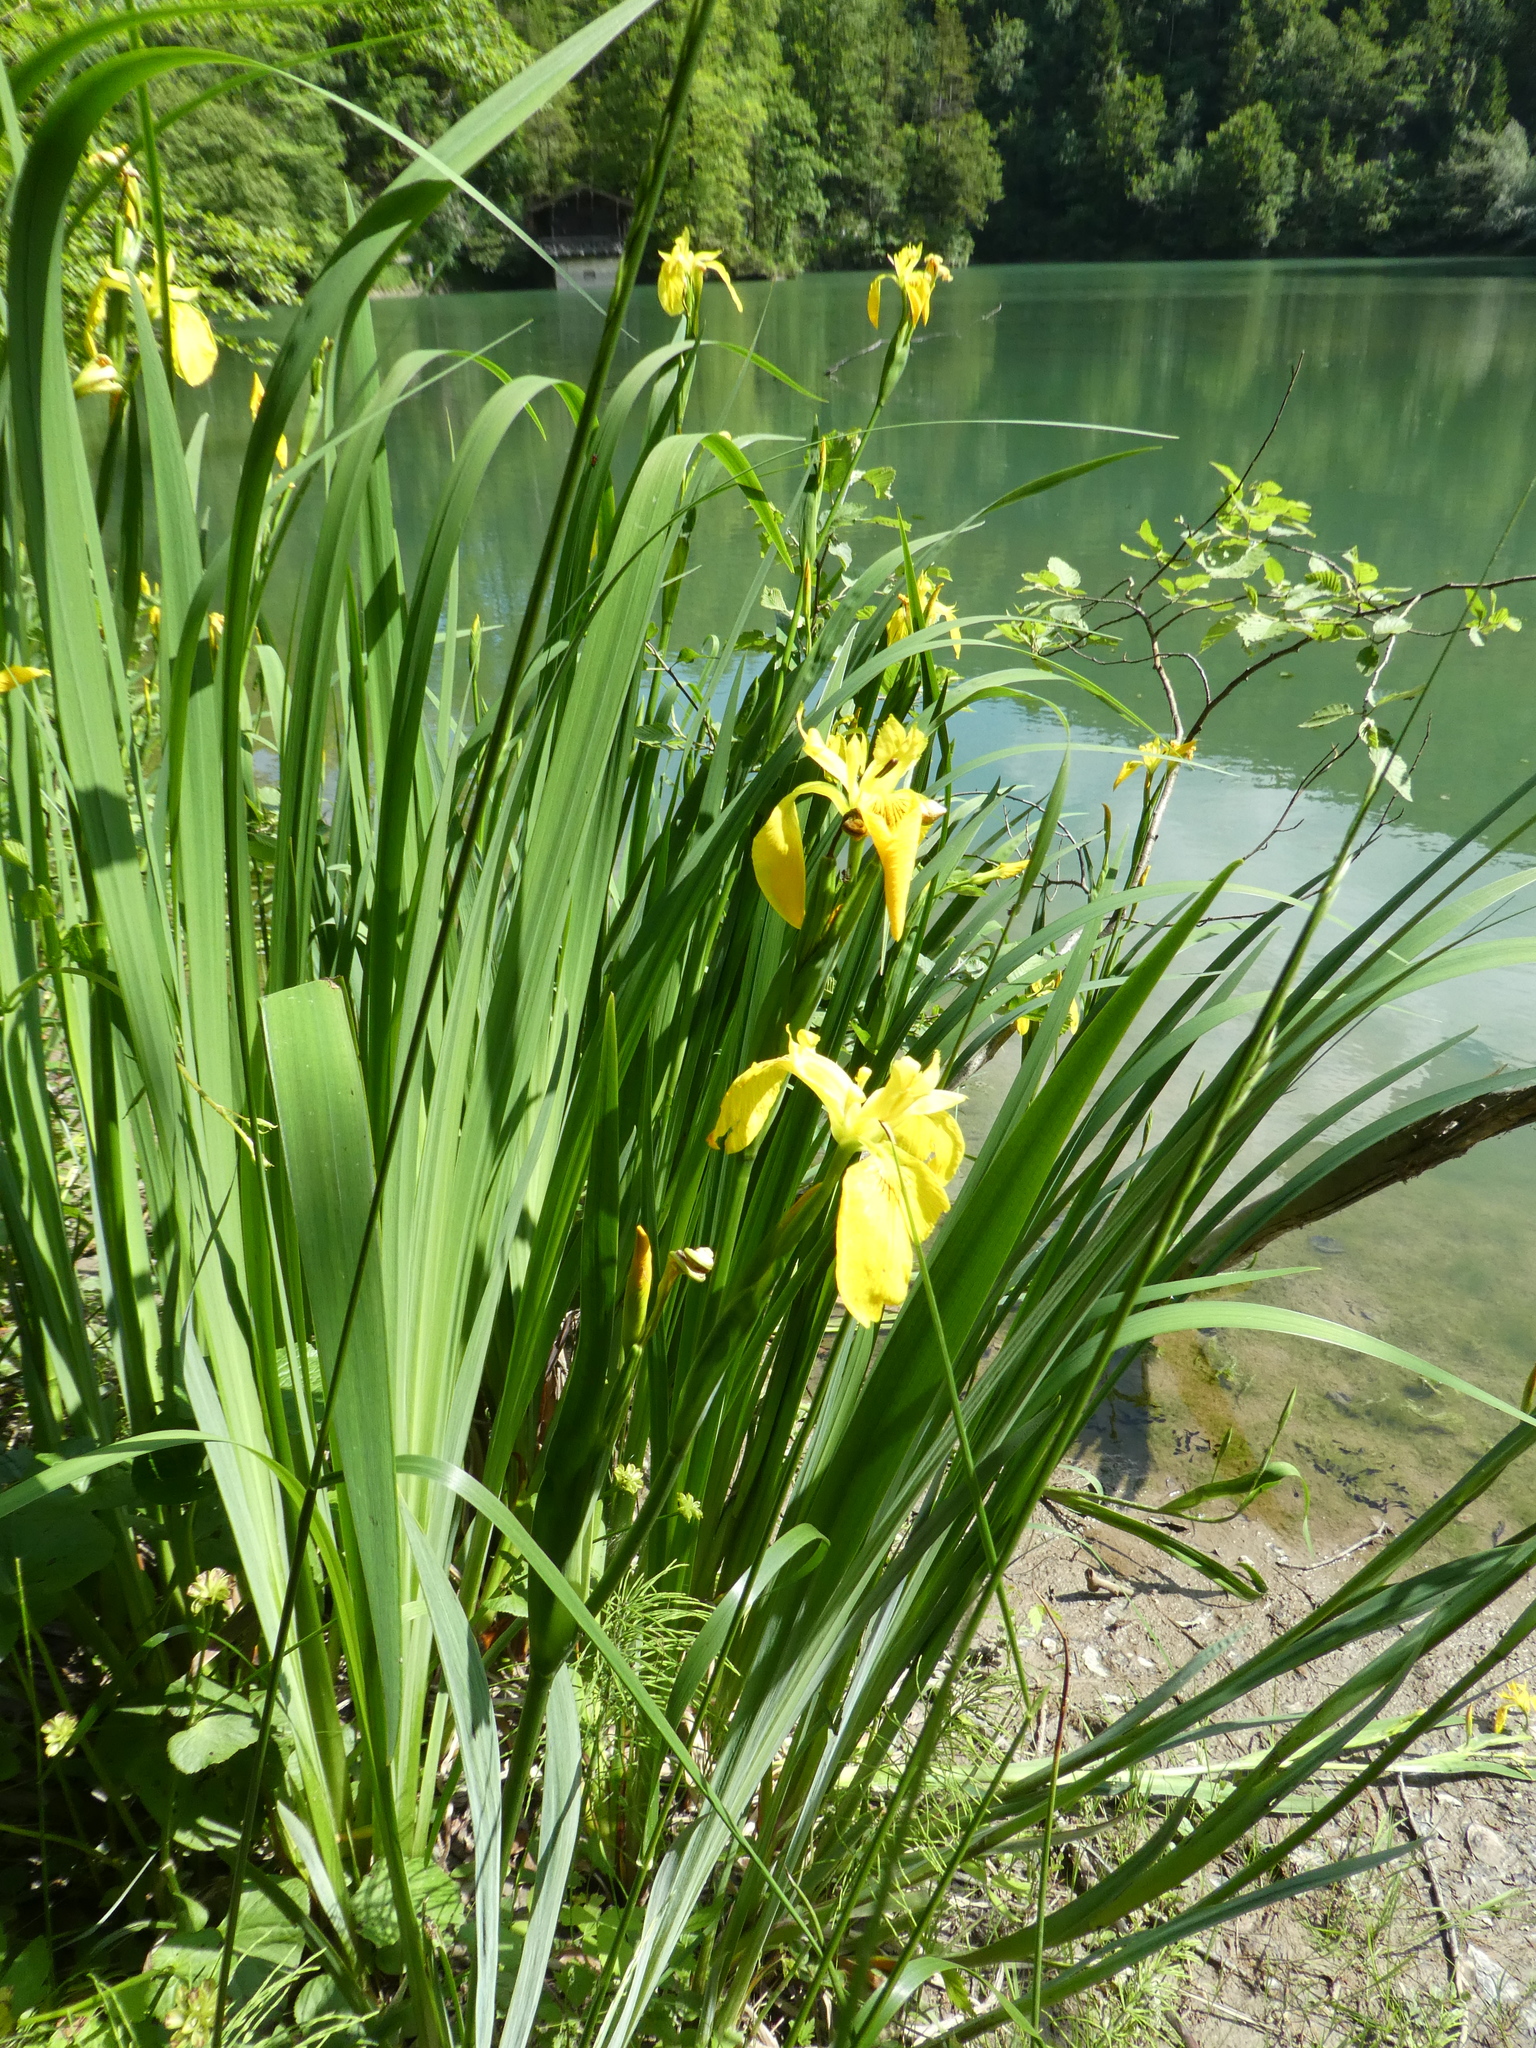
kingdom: Plantae
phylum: Tracheophyta
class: Liliopsida
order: Asparagales
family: Iridaceae
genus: Iris
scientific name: Iris pseudacorus
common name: Yellow flag
